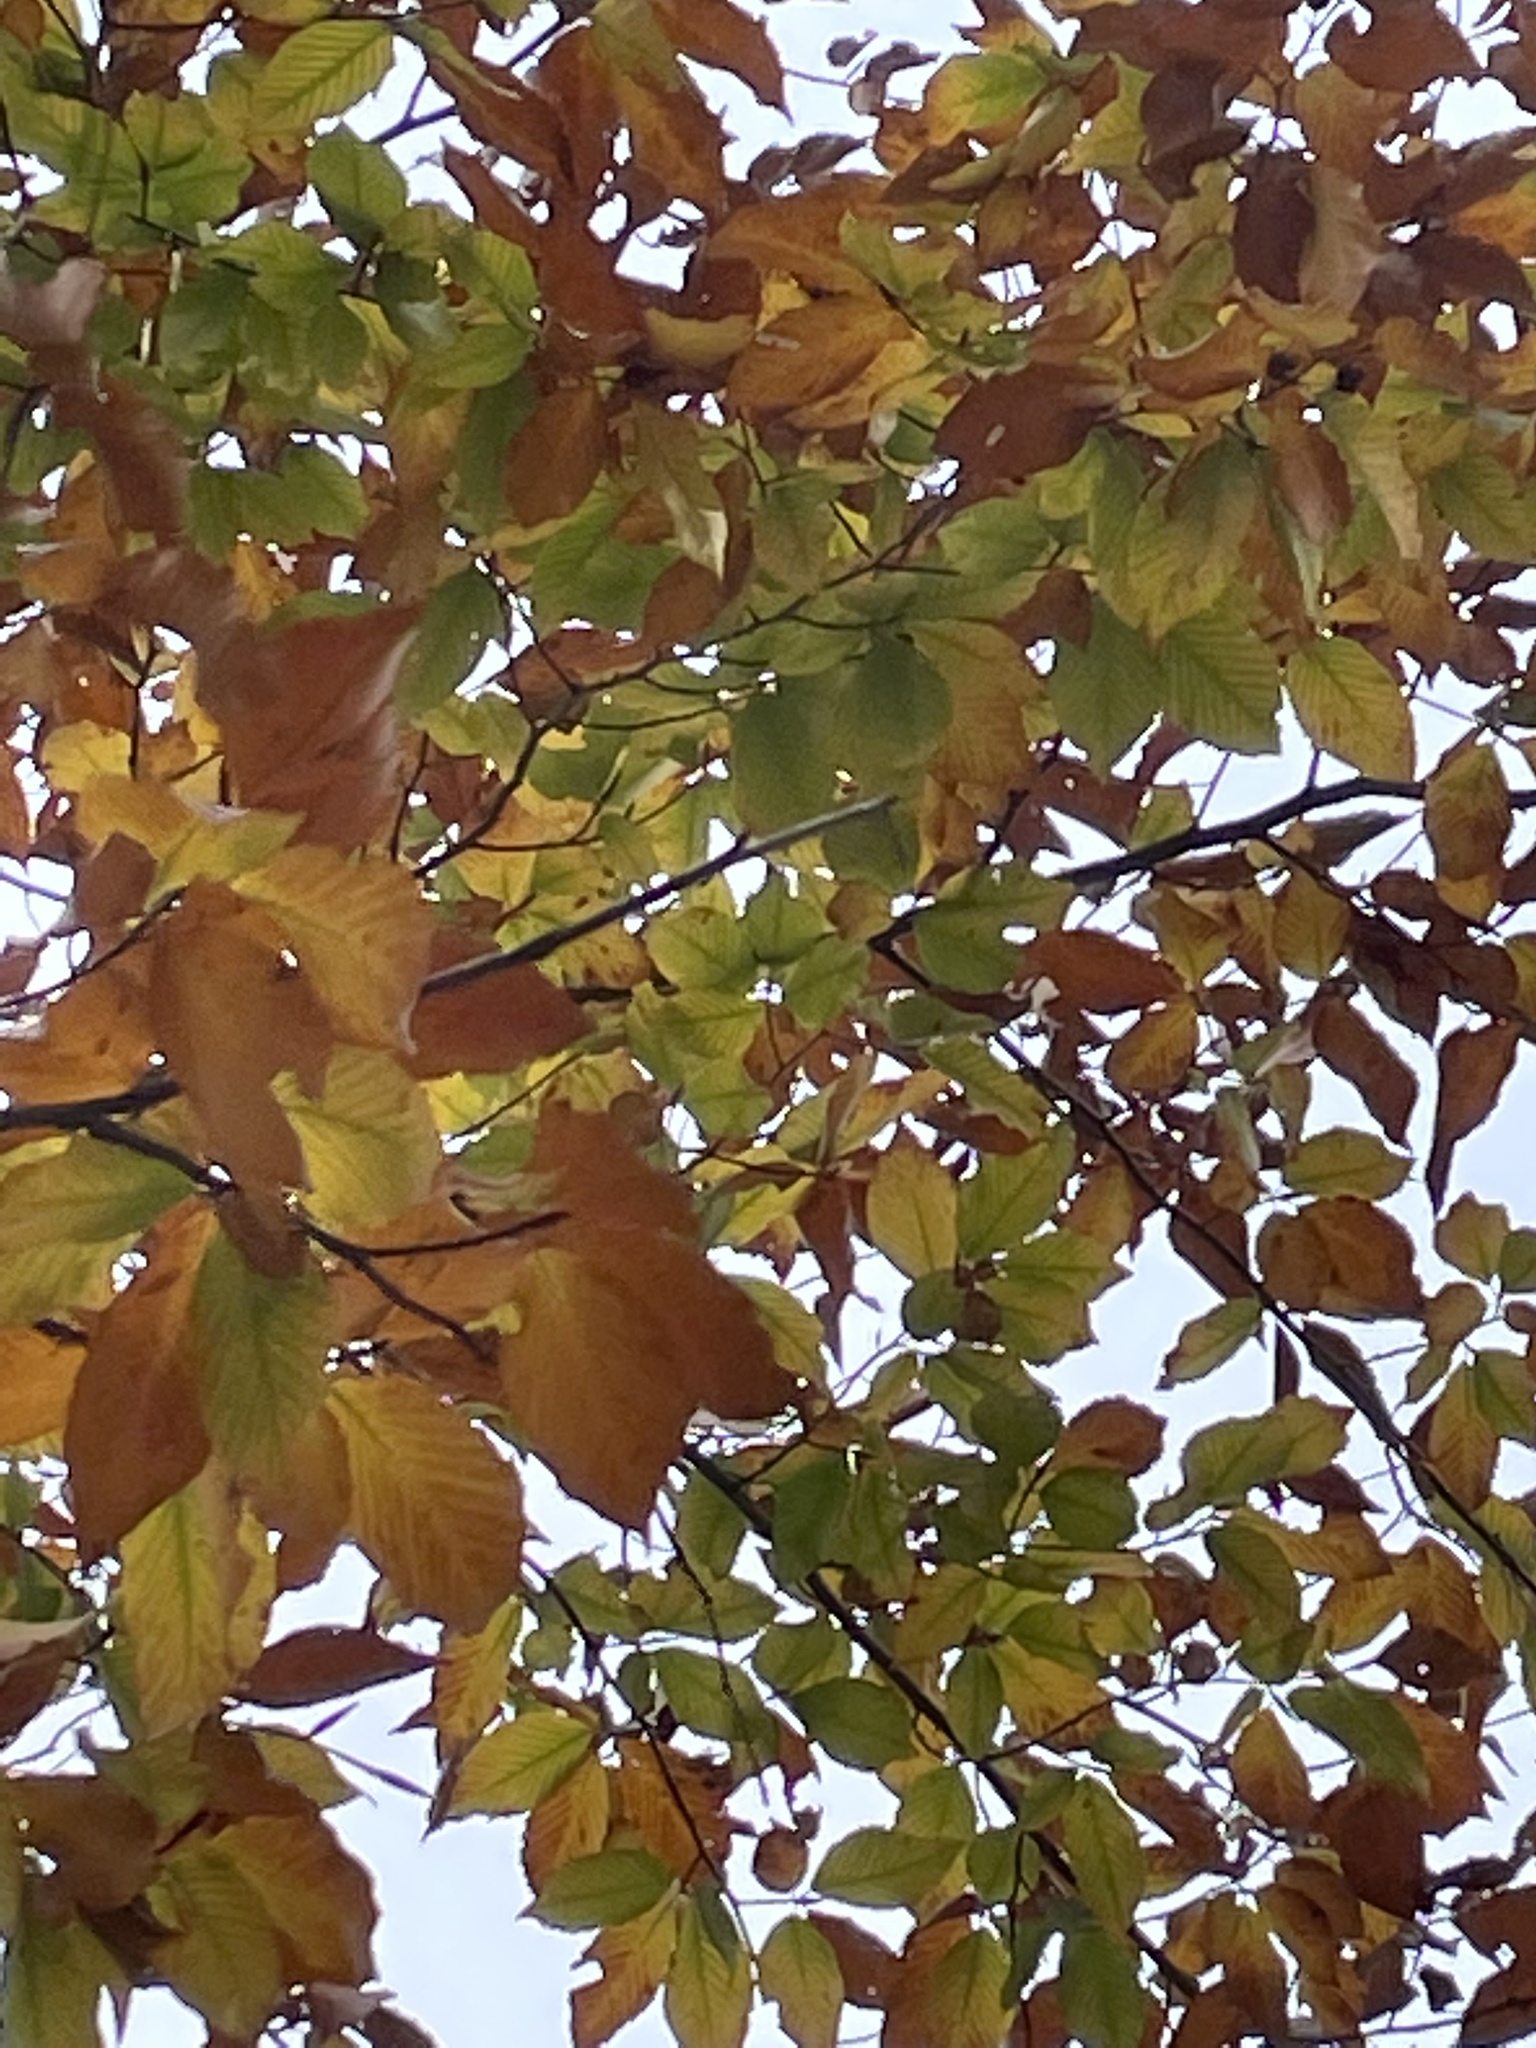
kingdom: Plantae
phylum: Tracheophyta
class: Magnoliopsida
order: Fagales
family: Fagaceae
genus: Fagus
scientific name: Fagus grandifolia
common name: American beech
